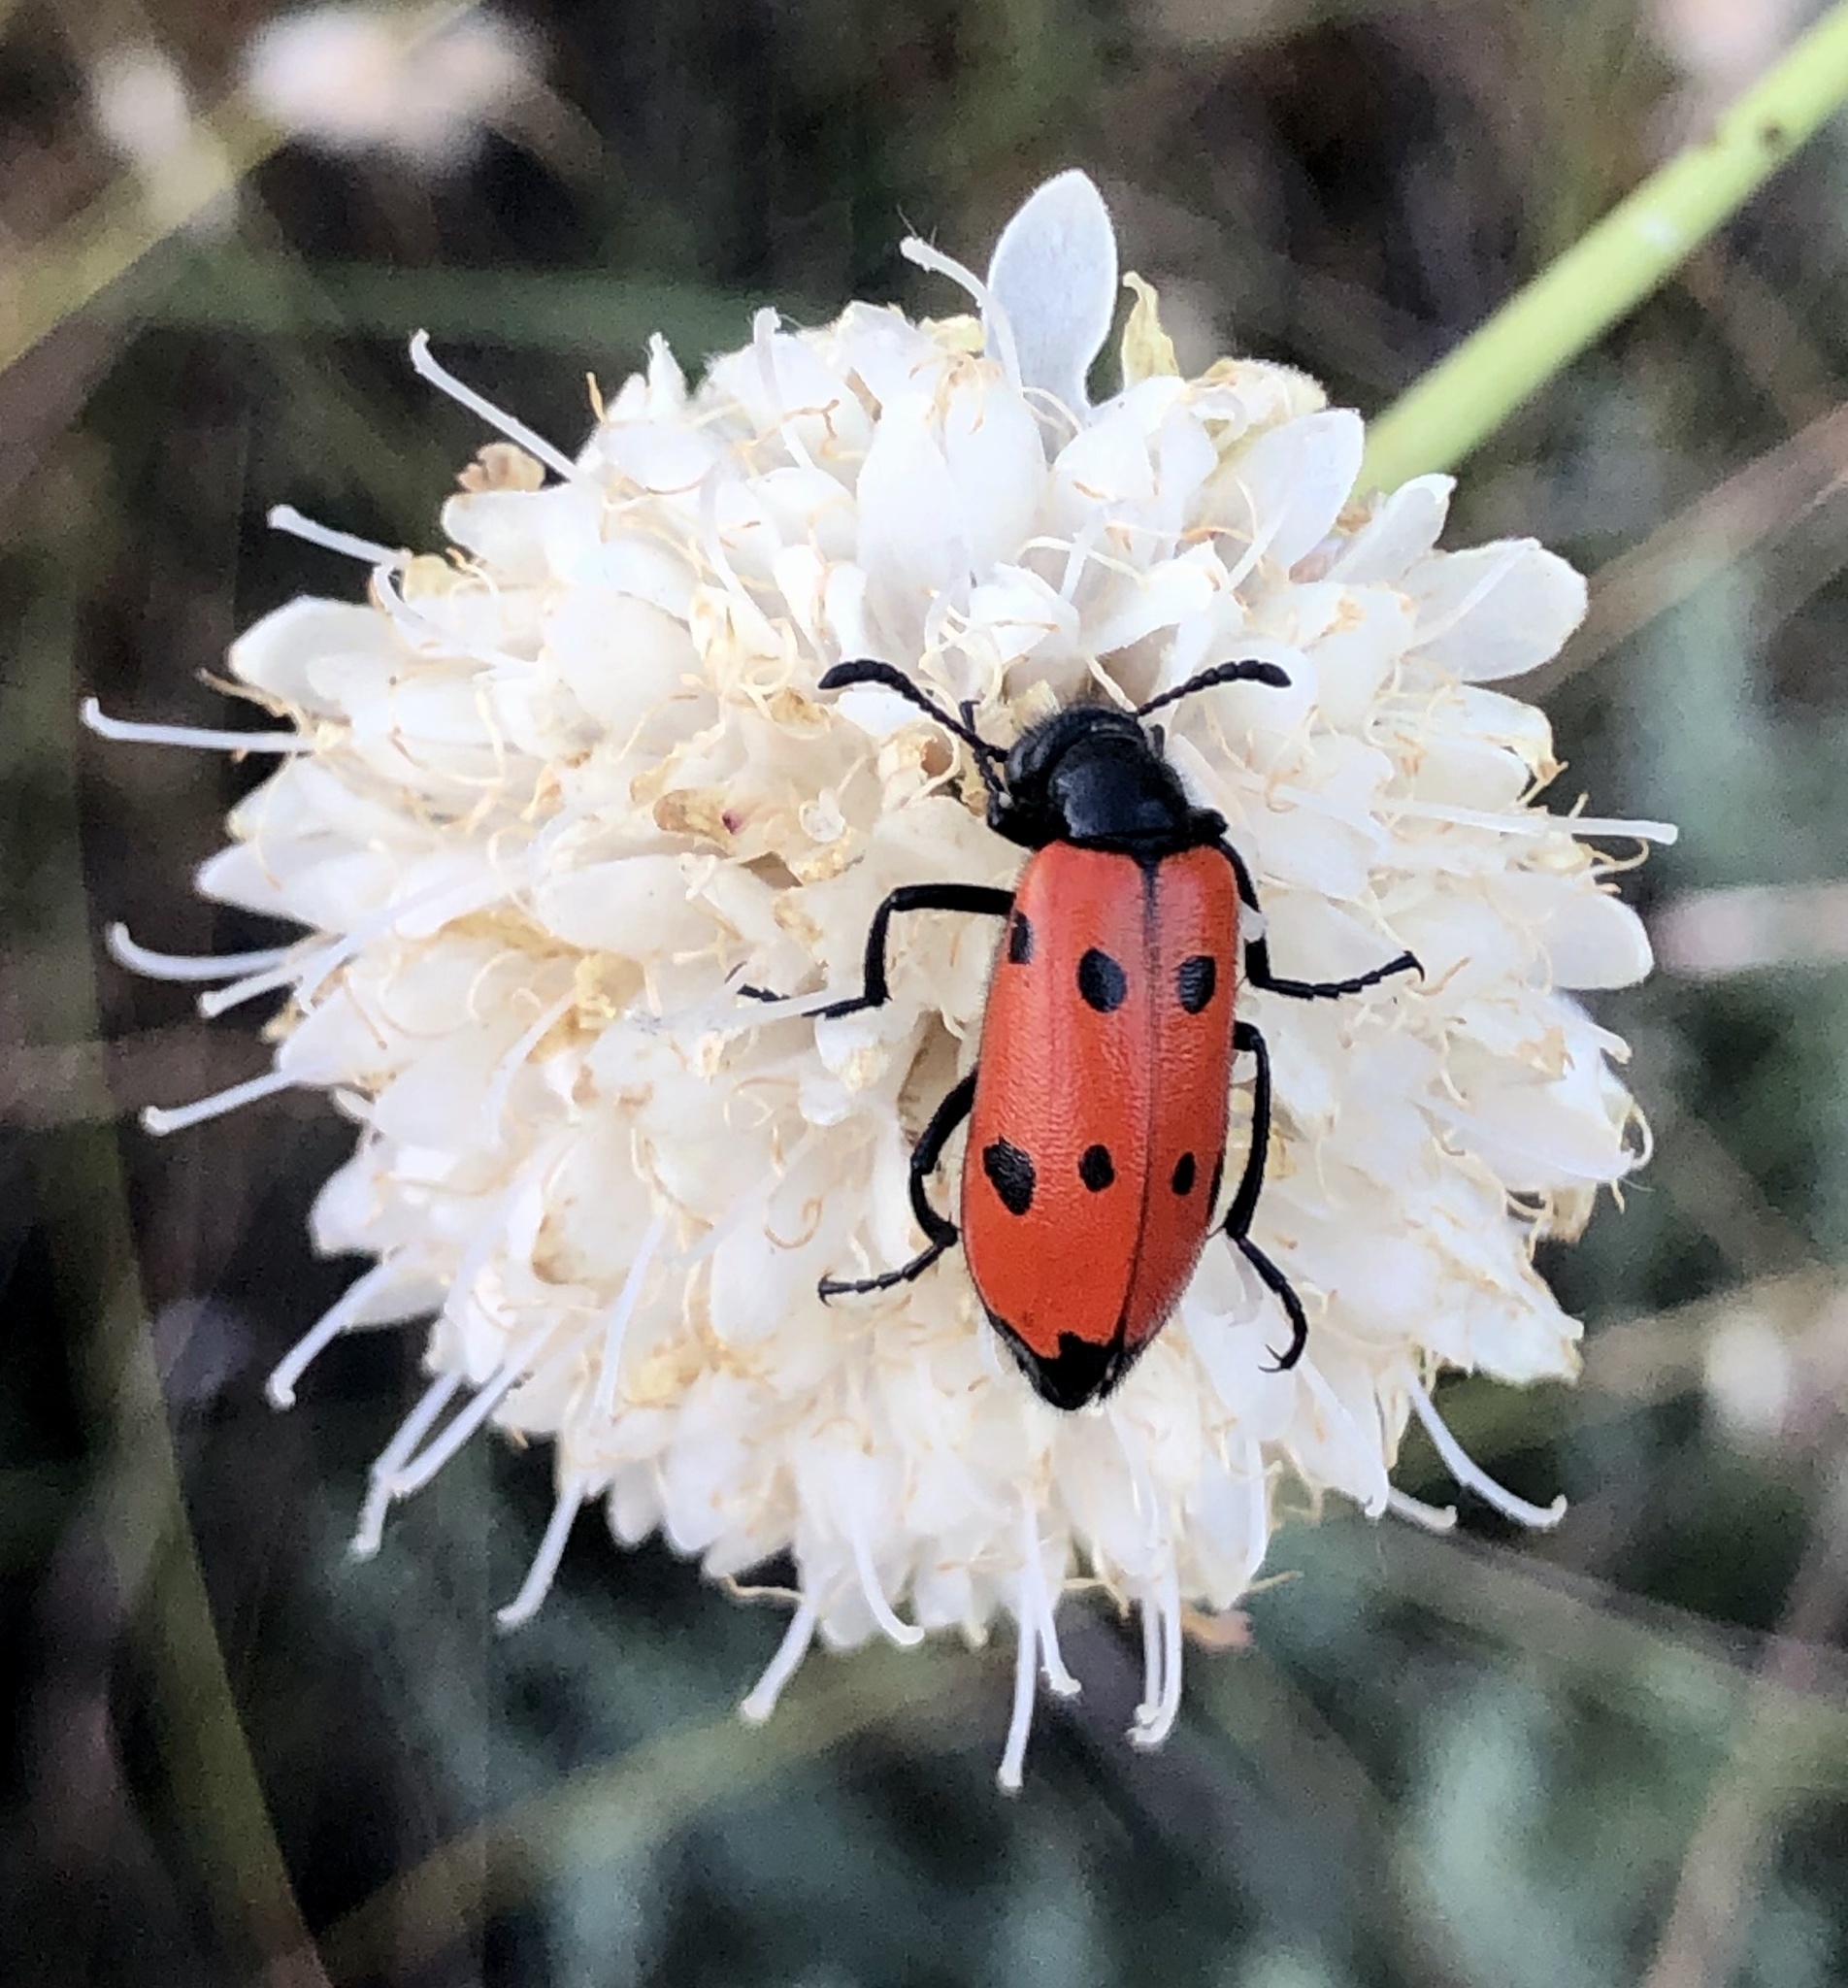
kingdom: Animalia
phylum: Arthropoda
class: Insecta
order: Coleoptera
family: Meloidae
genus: Mylabris
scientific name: Mylabris quadripunctata
